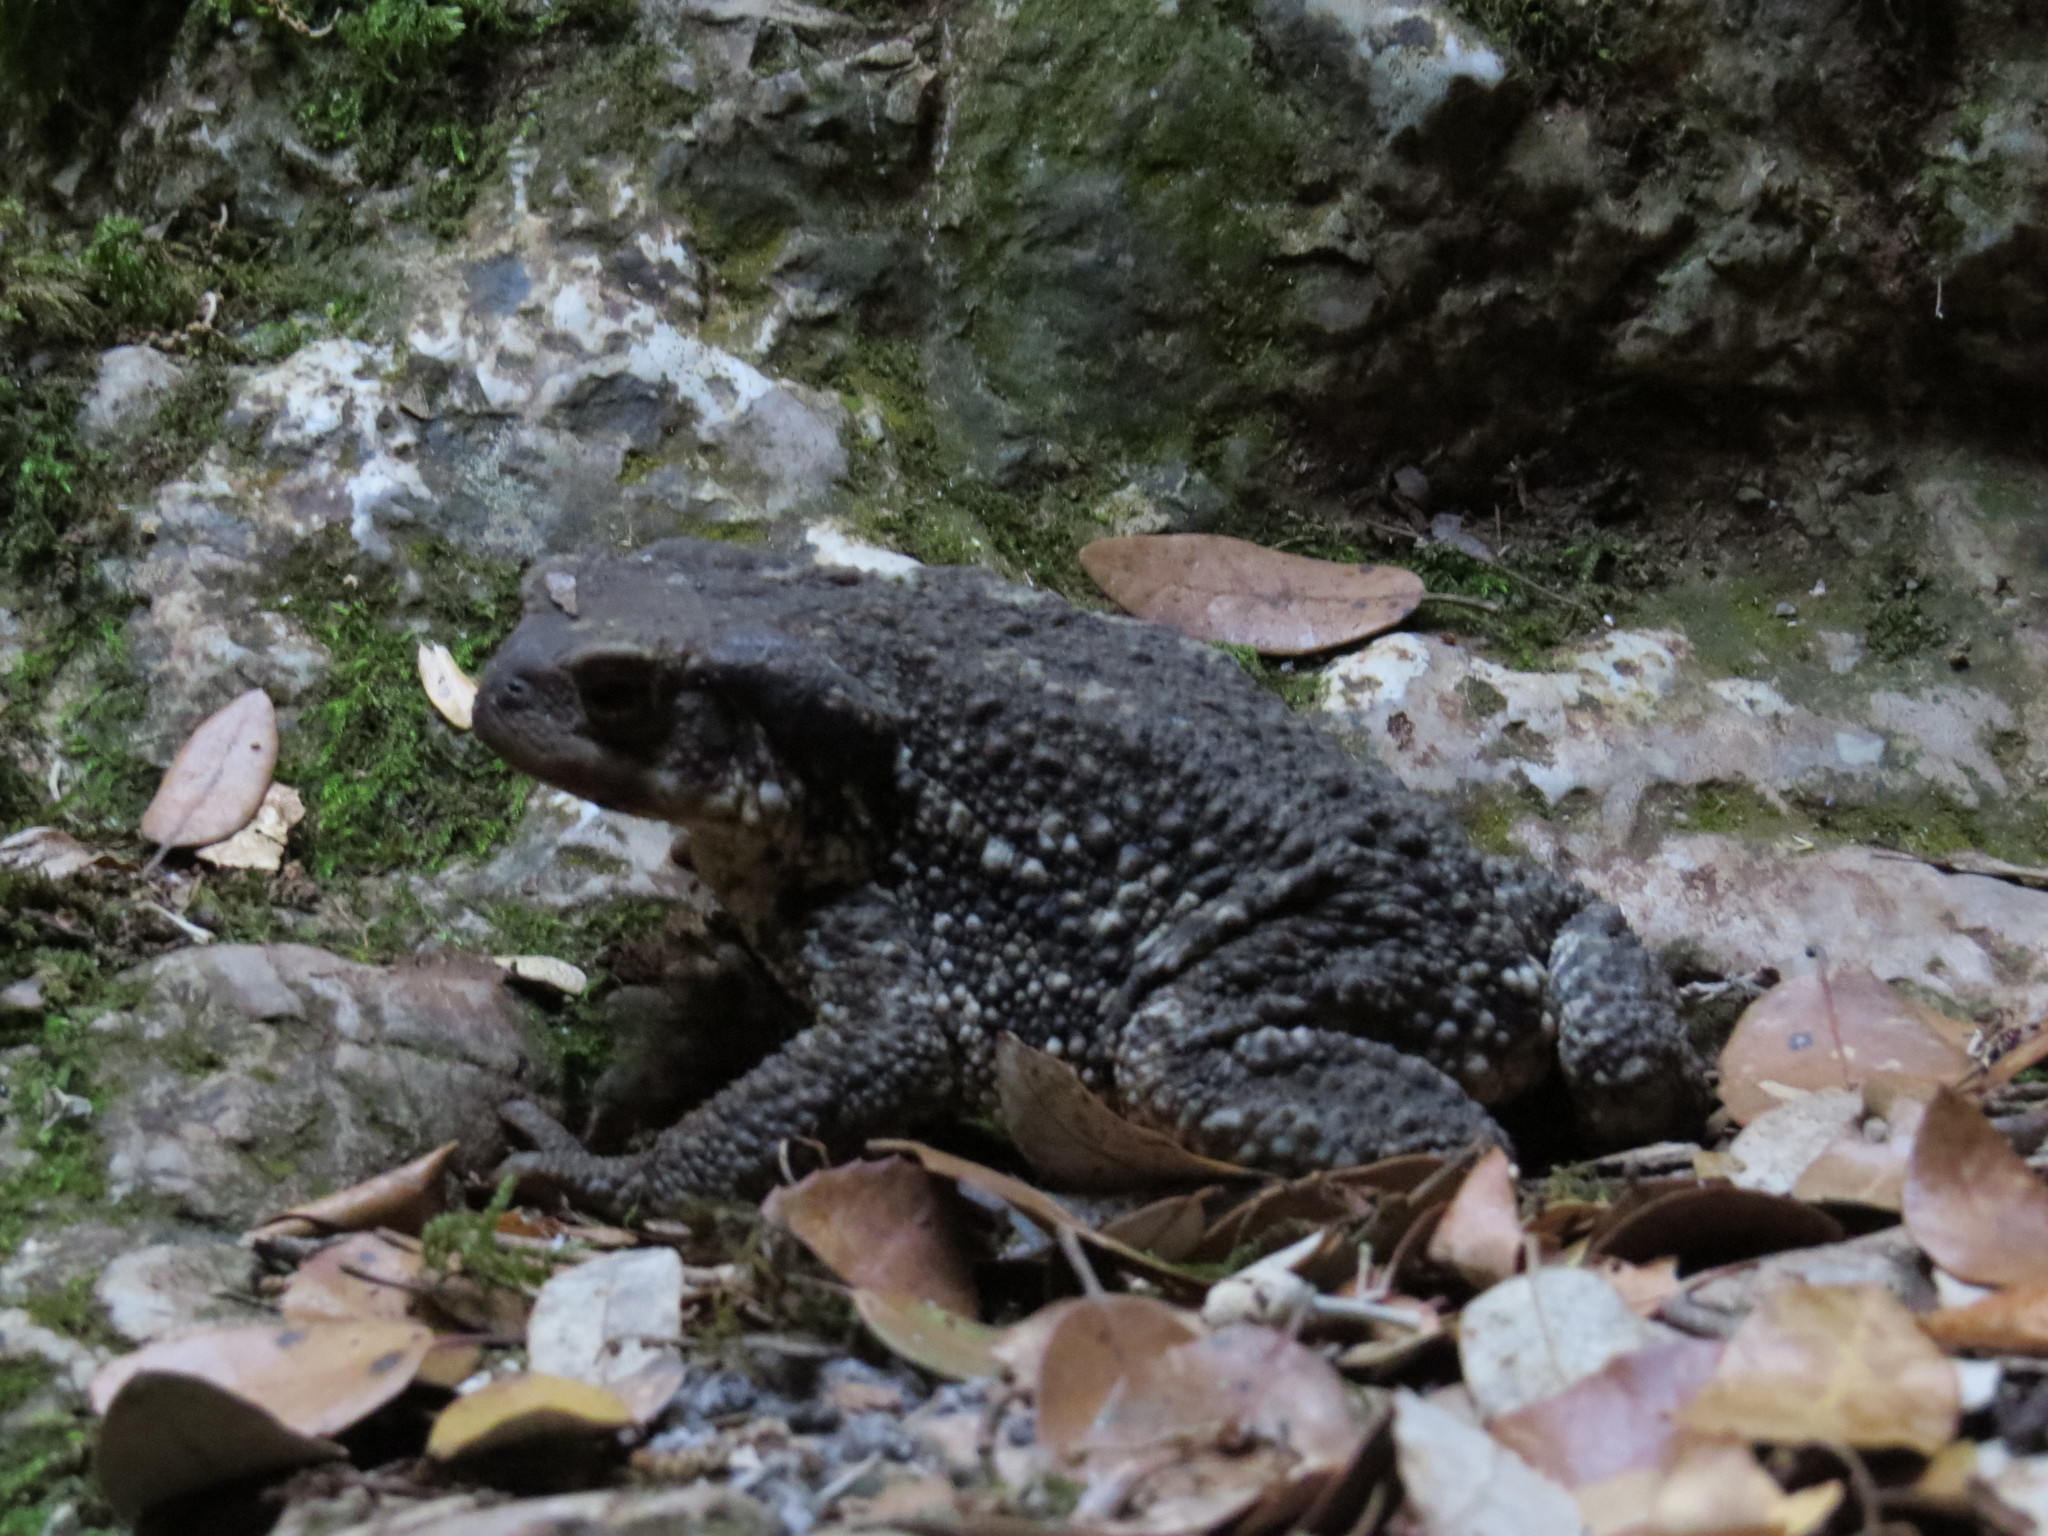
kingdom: Animalia
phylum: Chordata
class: Amphibia
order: Anura
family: Bufonidae
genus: Bufo
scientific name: Bufo spinosus
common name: Western common toad
